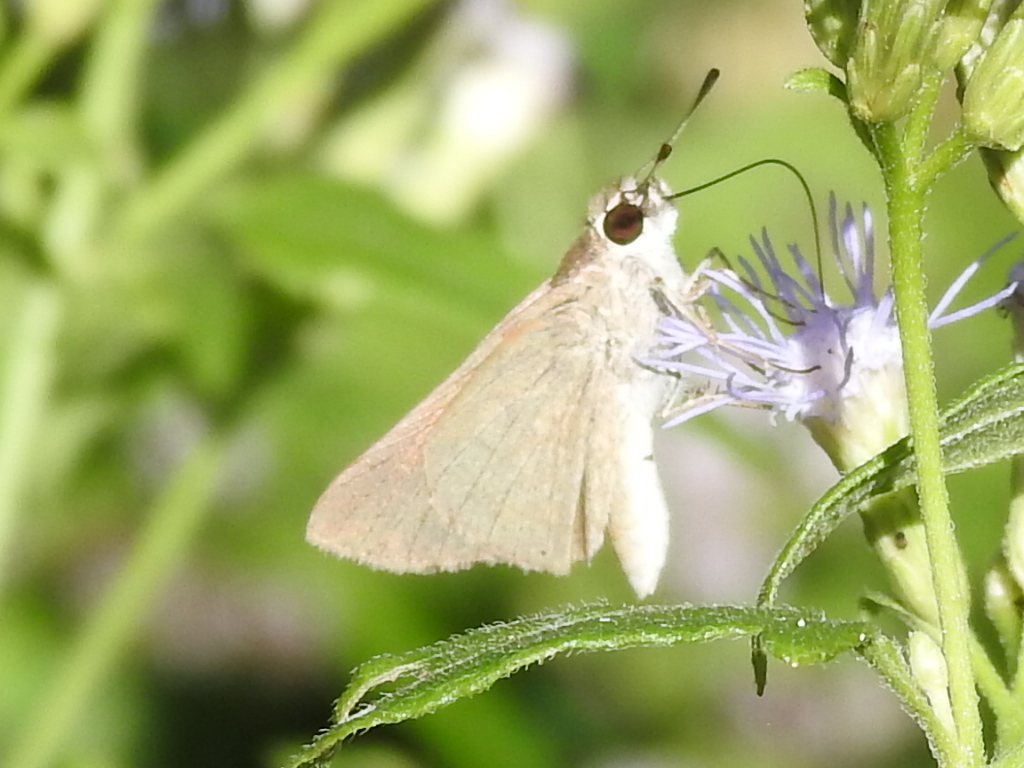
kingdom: Animalia
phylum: Arthropoda
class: Insecta
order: Lepidoptera
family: Hesperiidae
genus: Lerodea
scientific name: Lerodea eufala
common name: Eufala skipper
